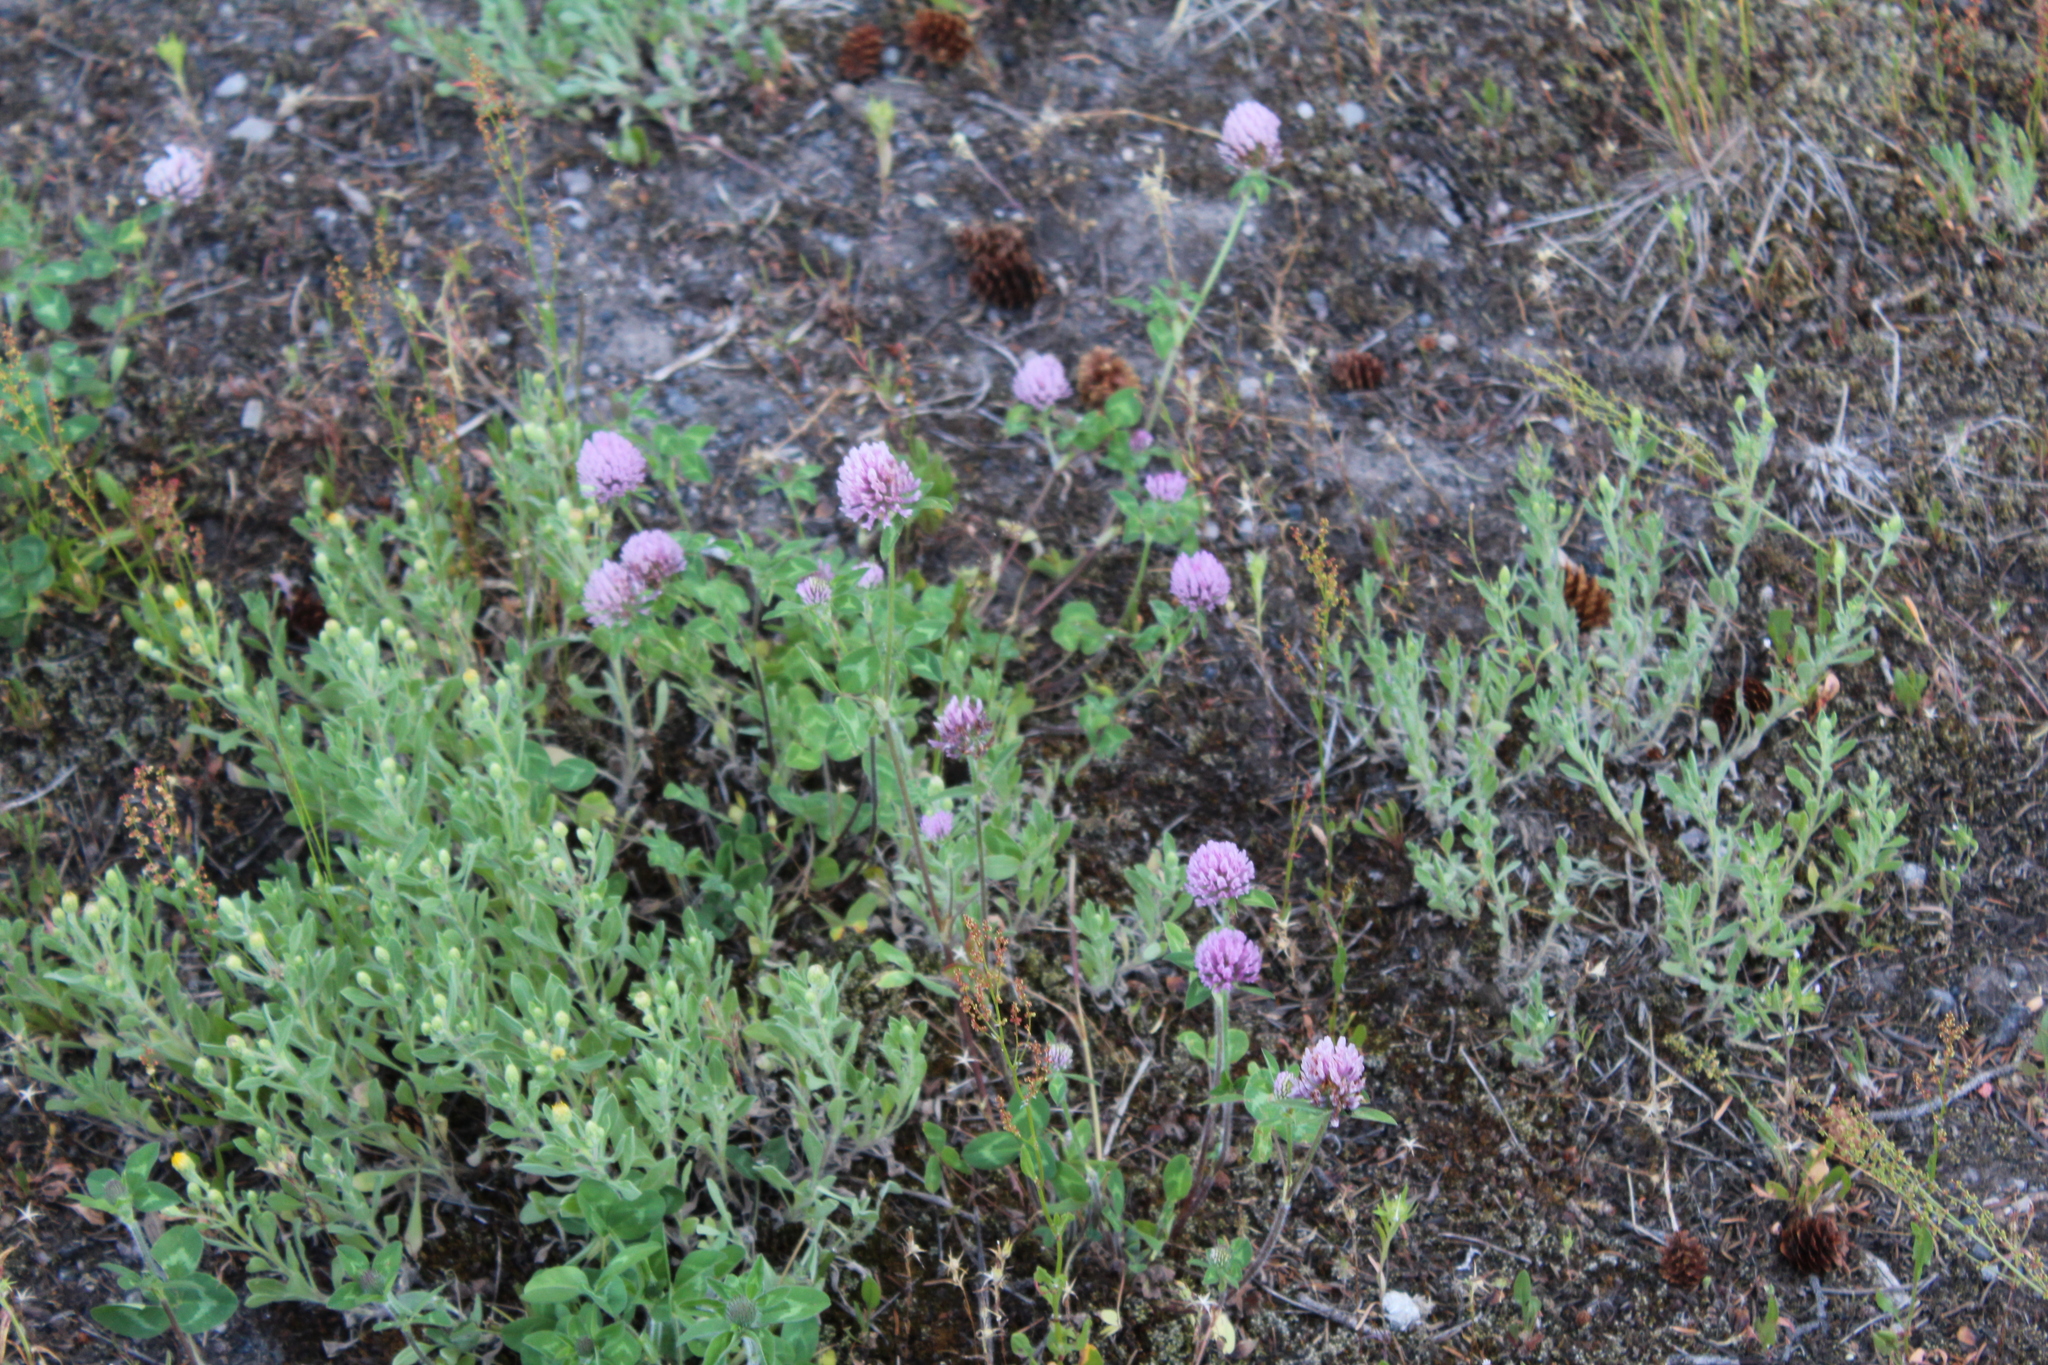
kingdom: Plantae
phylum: Tracheophyta
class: Magnoliopsida
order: Fabales
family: Fabaceae
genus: Trifolium
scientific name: Trifolium pratense
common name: Red clover
